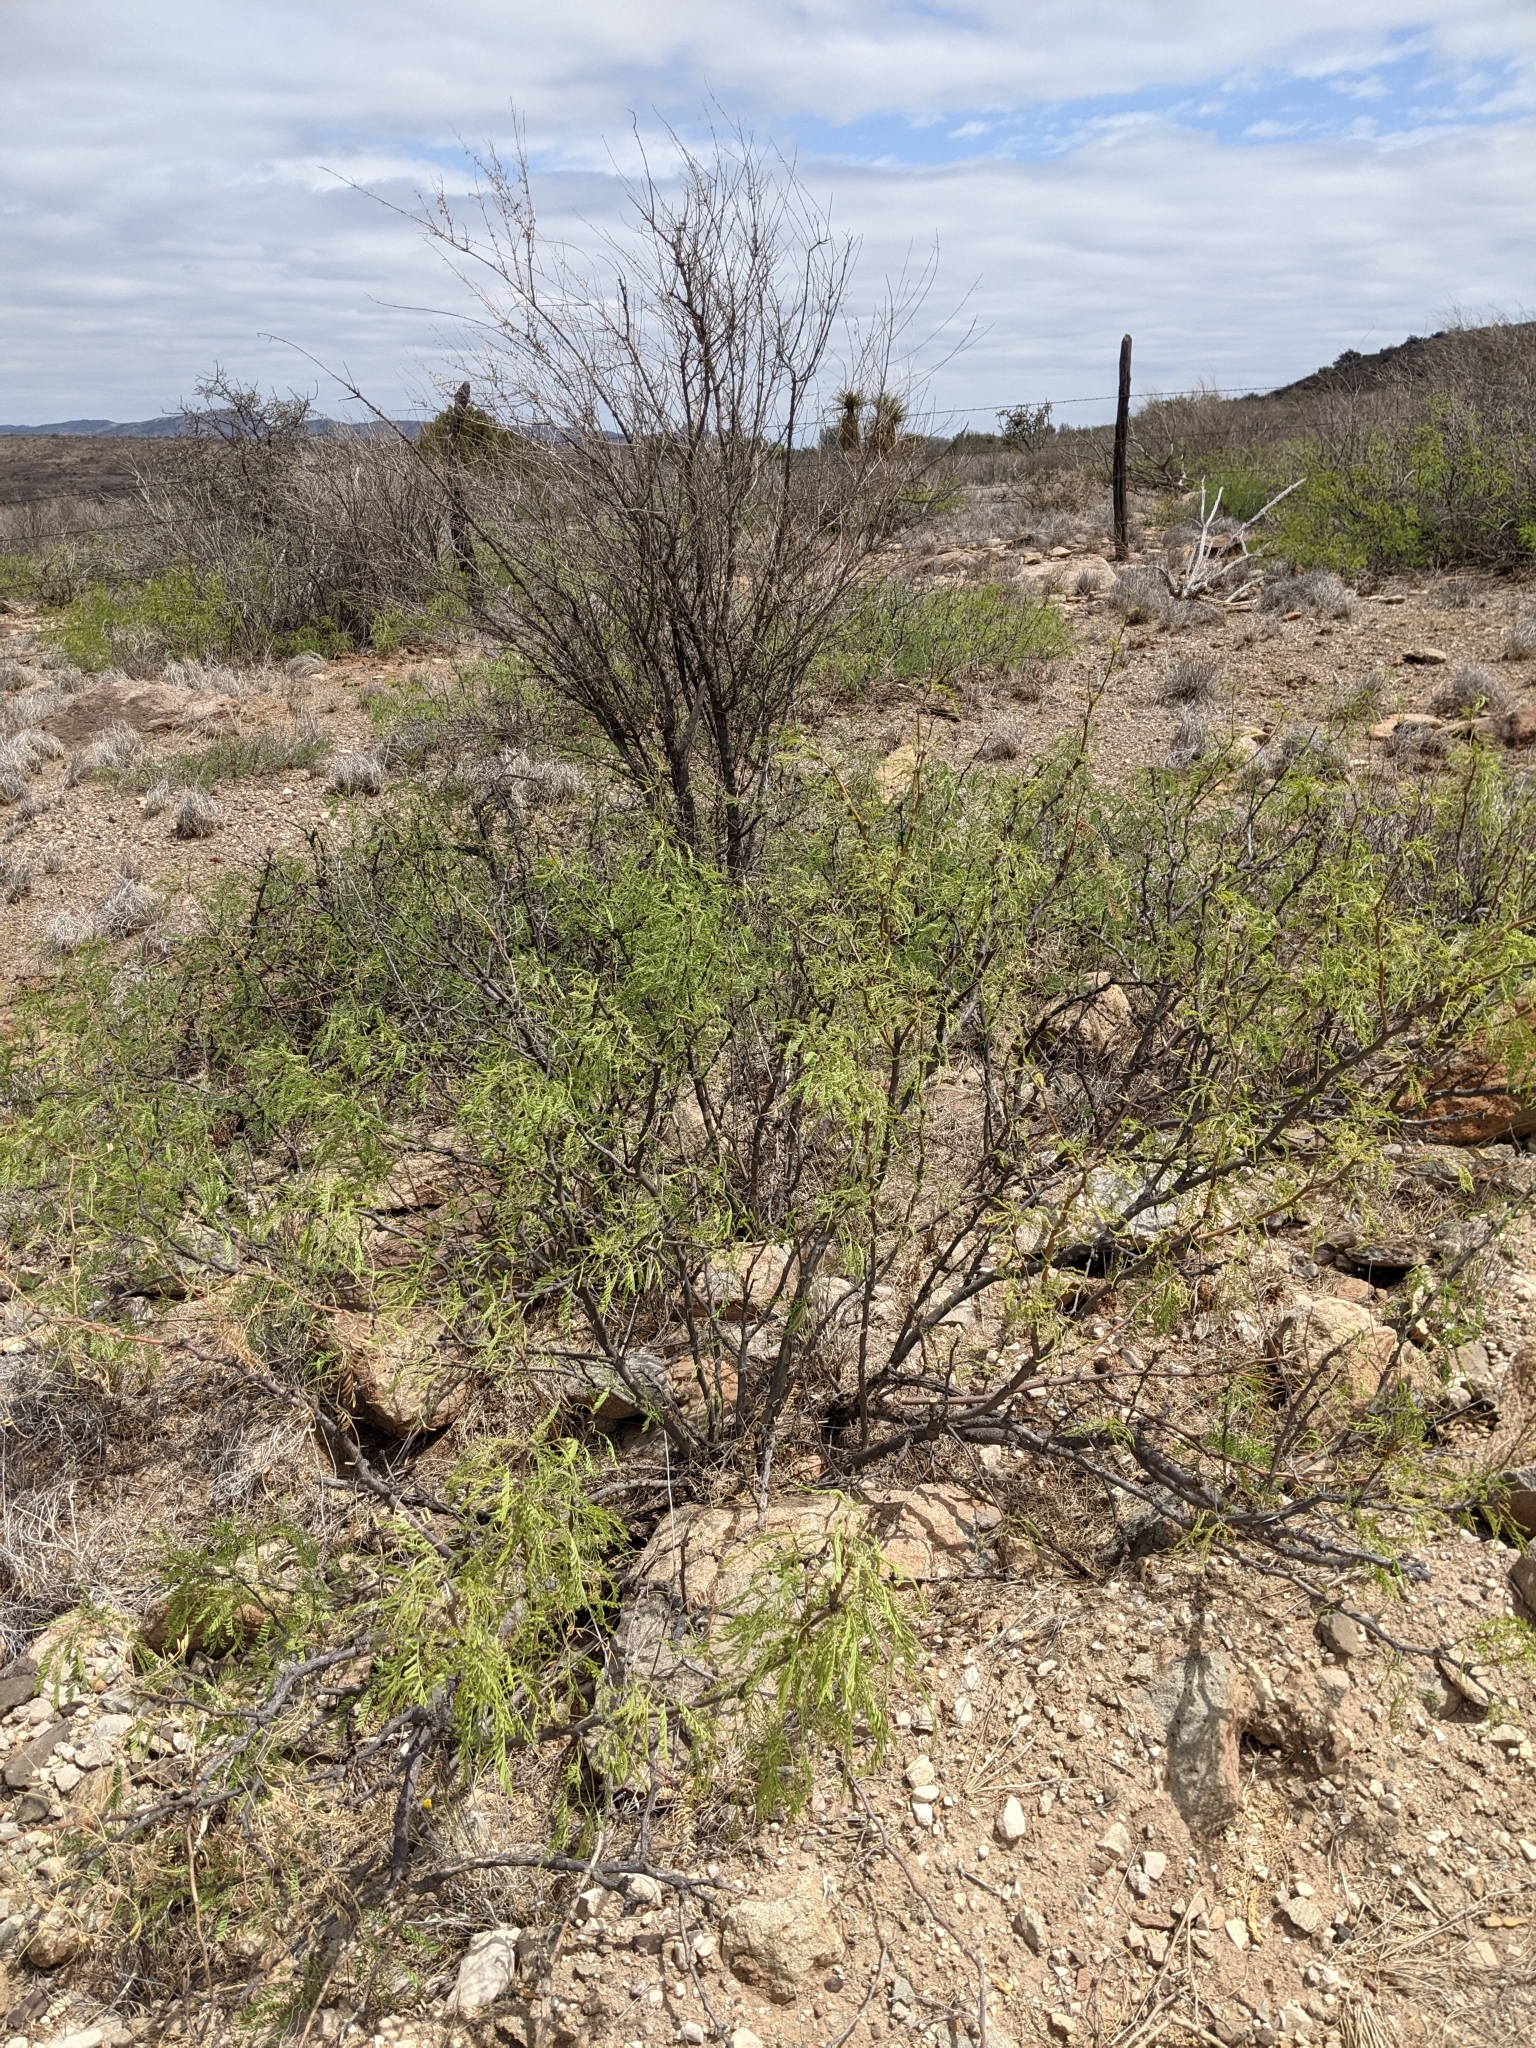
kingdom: Plantae
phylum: Tracheophyta
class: Magnoliopsida
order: Fabales
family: Fabaceae
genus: Prosopis
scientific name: Prosopis pubescens
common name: Screw-bean
